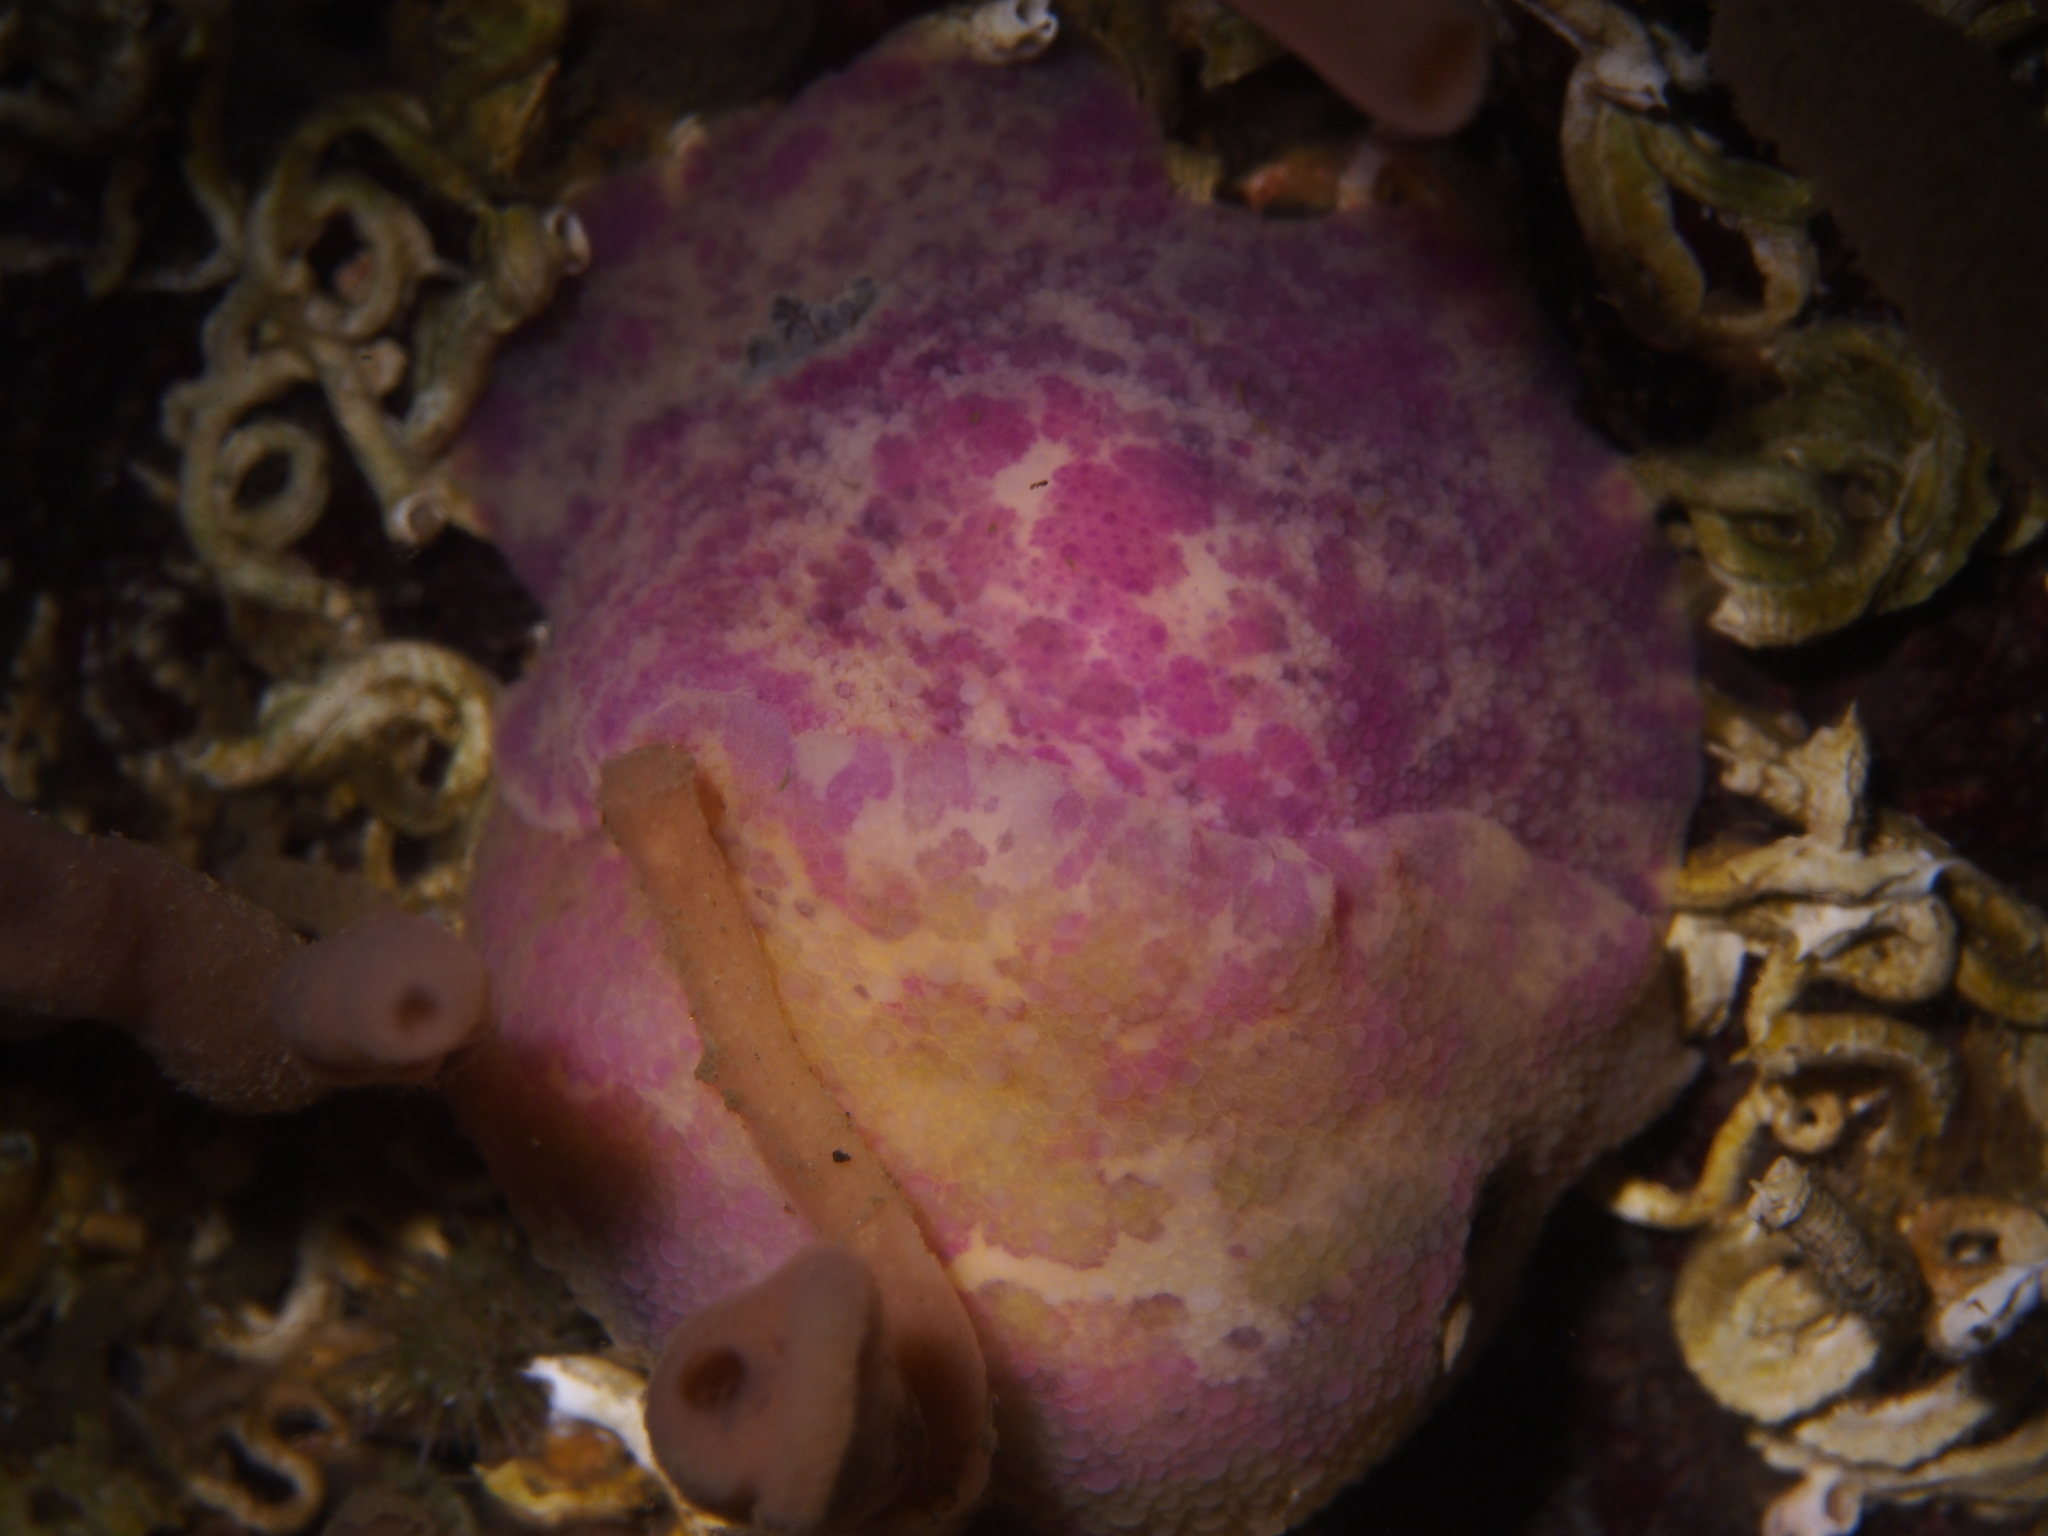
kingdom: Animalia
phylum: Mollusca
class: Gastropoda
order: Nudibranchia
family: Dorididae
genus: Doris
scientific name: Doris pseudoargus
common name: Sea lemon
